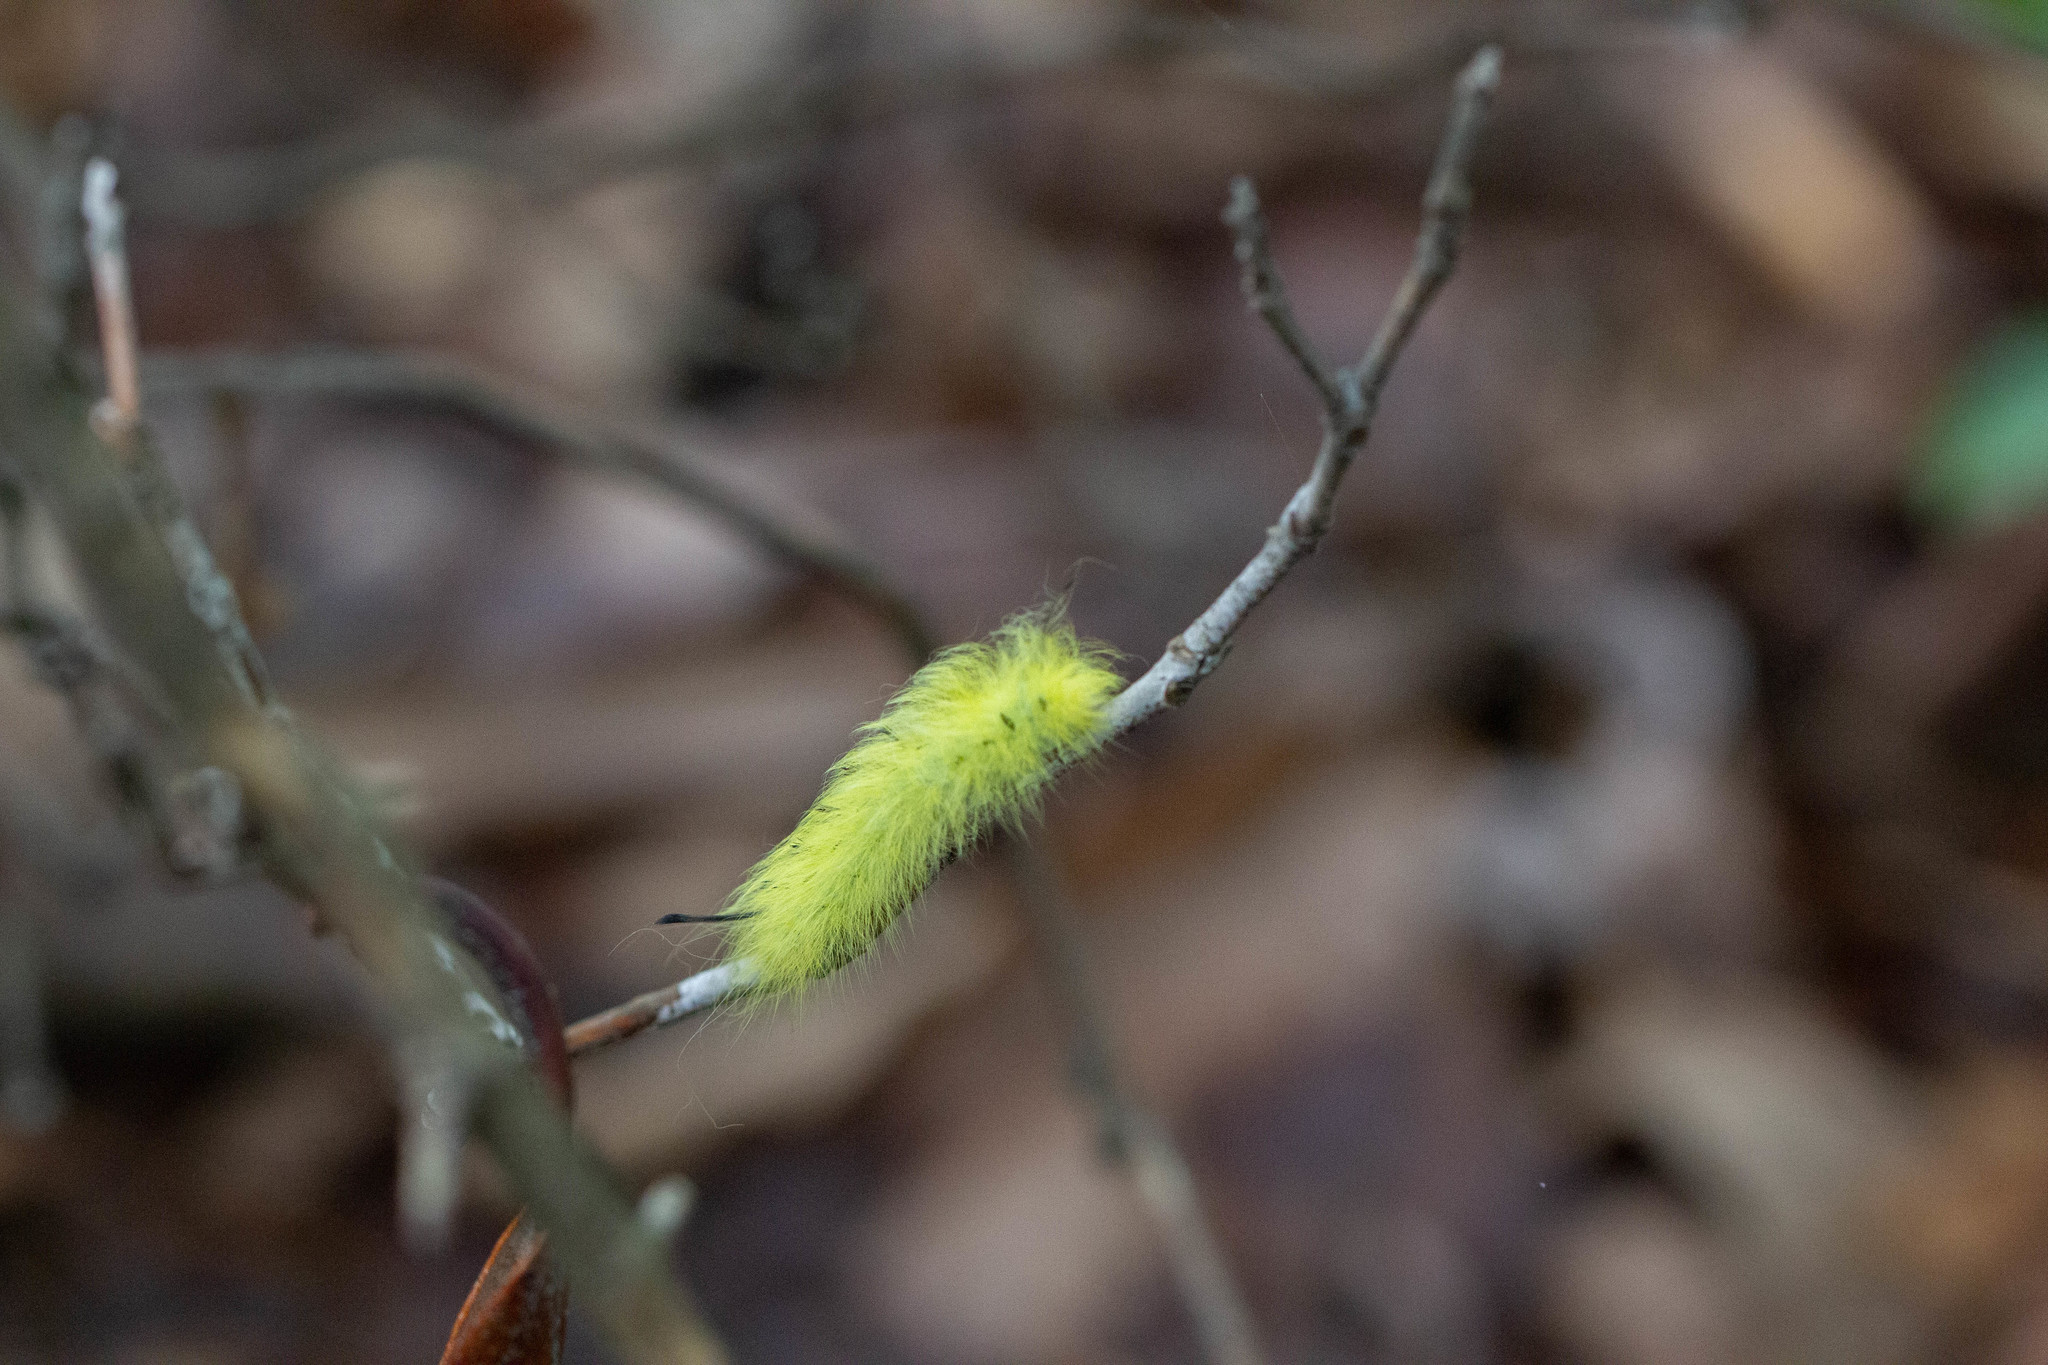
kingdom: Animalia
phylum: Arthropoda
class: Insecta
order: Lepidoptera
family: Apatelodidae
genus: Hygrochroa
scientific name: Hygrochroa Apatelodes torrefacta
